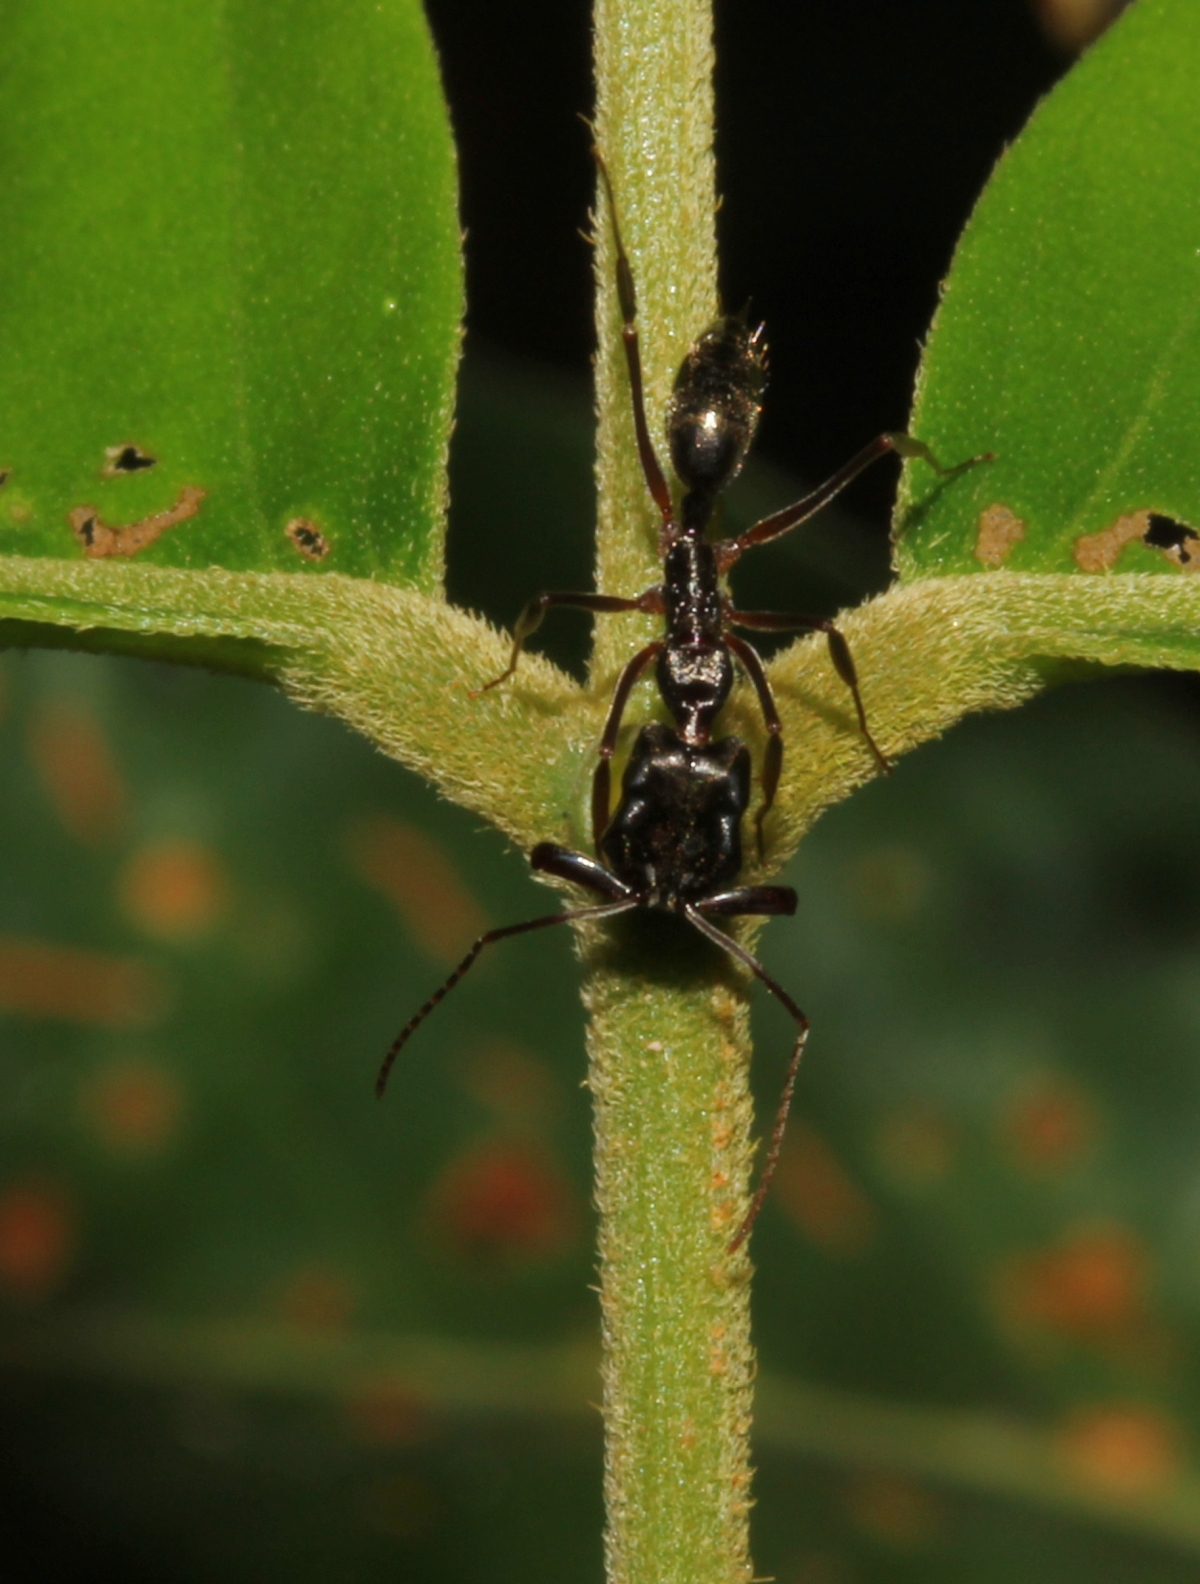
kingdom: Animalia
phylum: Arthropoda
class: Insecta
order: Hymenoptera
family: Formicidae
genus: Odontomachus
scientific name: Odontomachus
